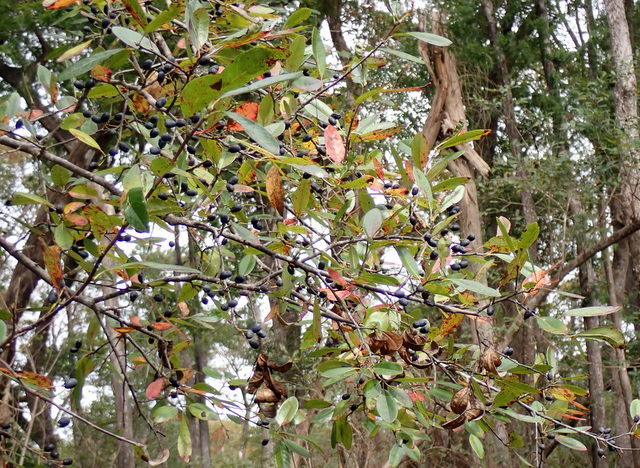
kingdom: Plantae
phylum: Tracheophyta
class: Magnoliopsida
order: Cornales
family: Nyssaceae
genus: Nyssa
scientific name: Nyssa biflora
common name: Swamp blackgum
